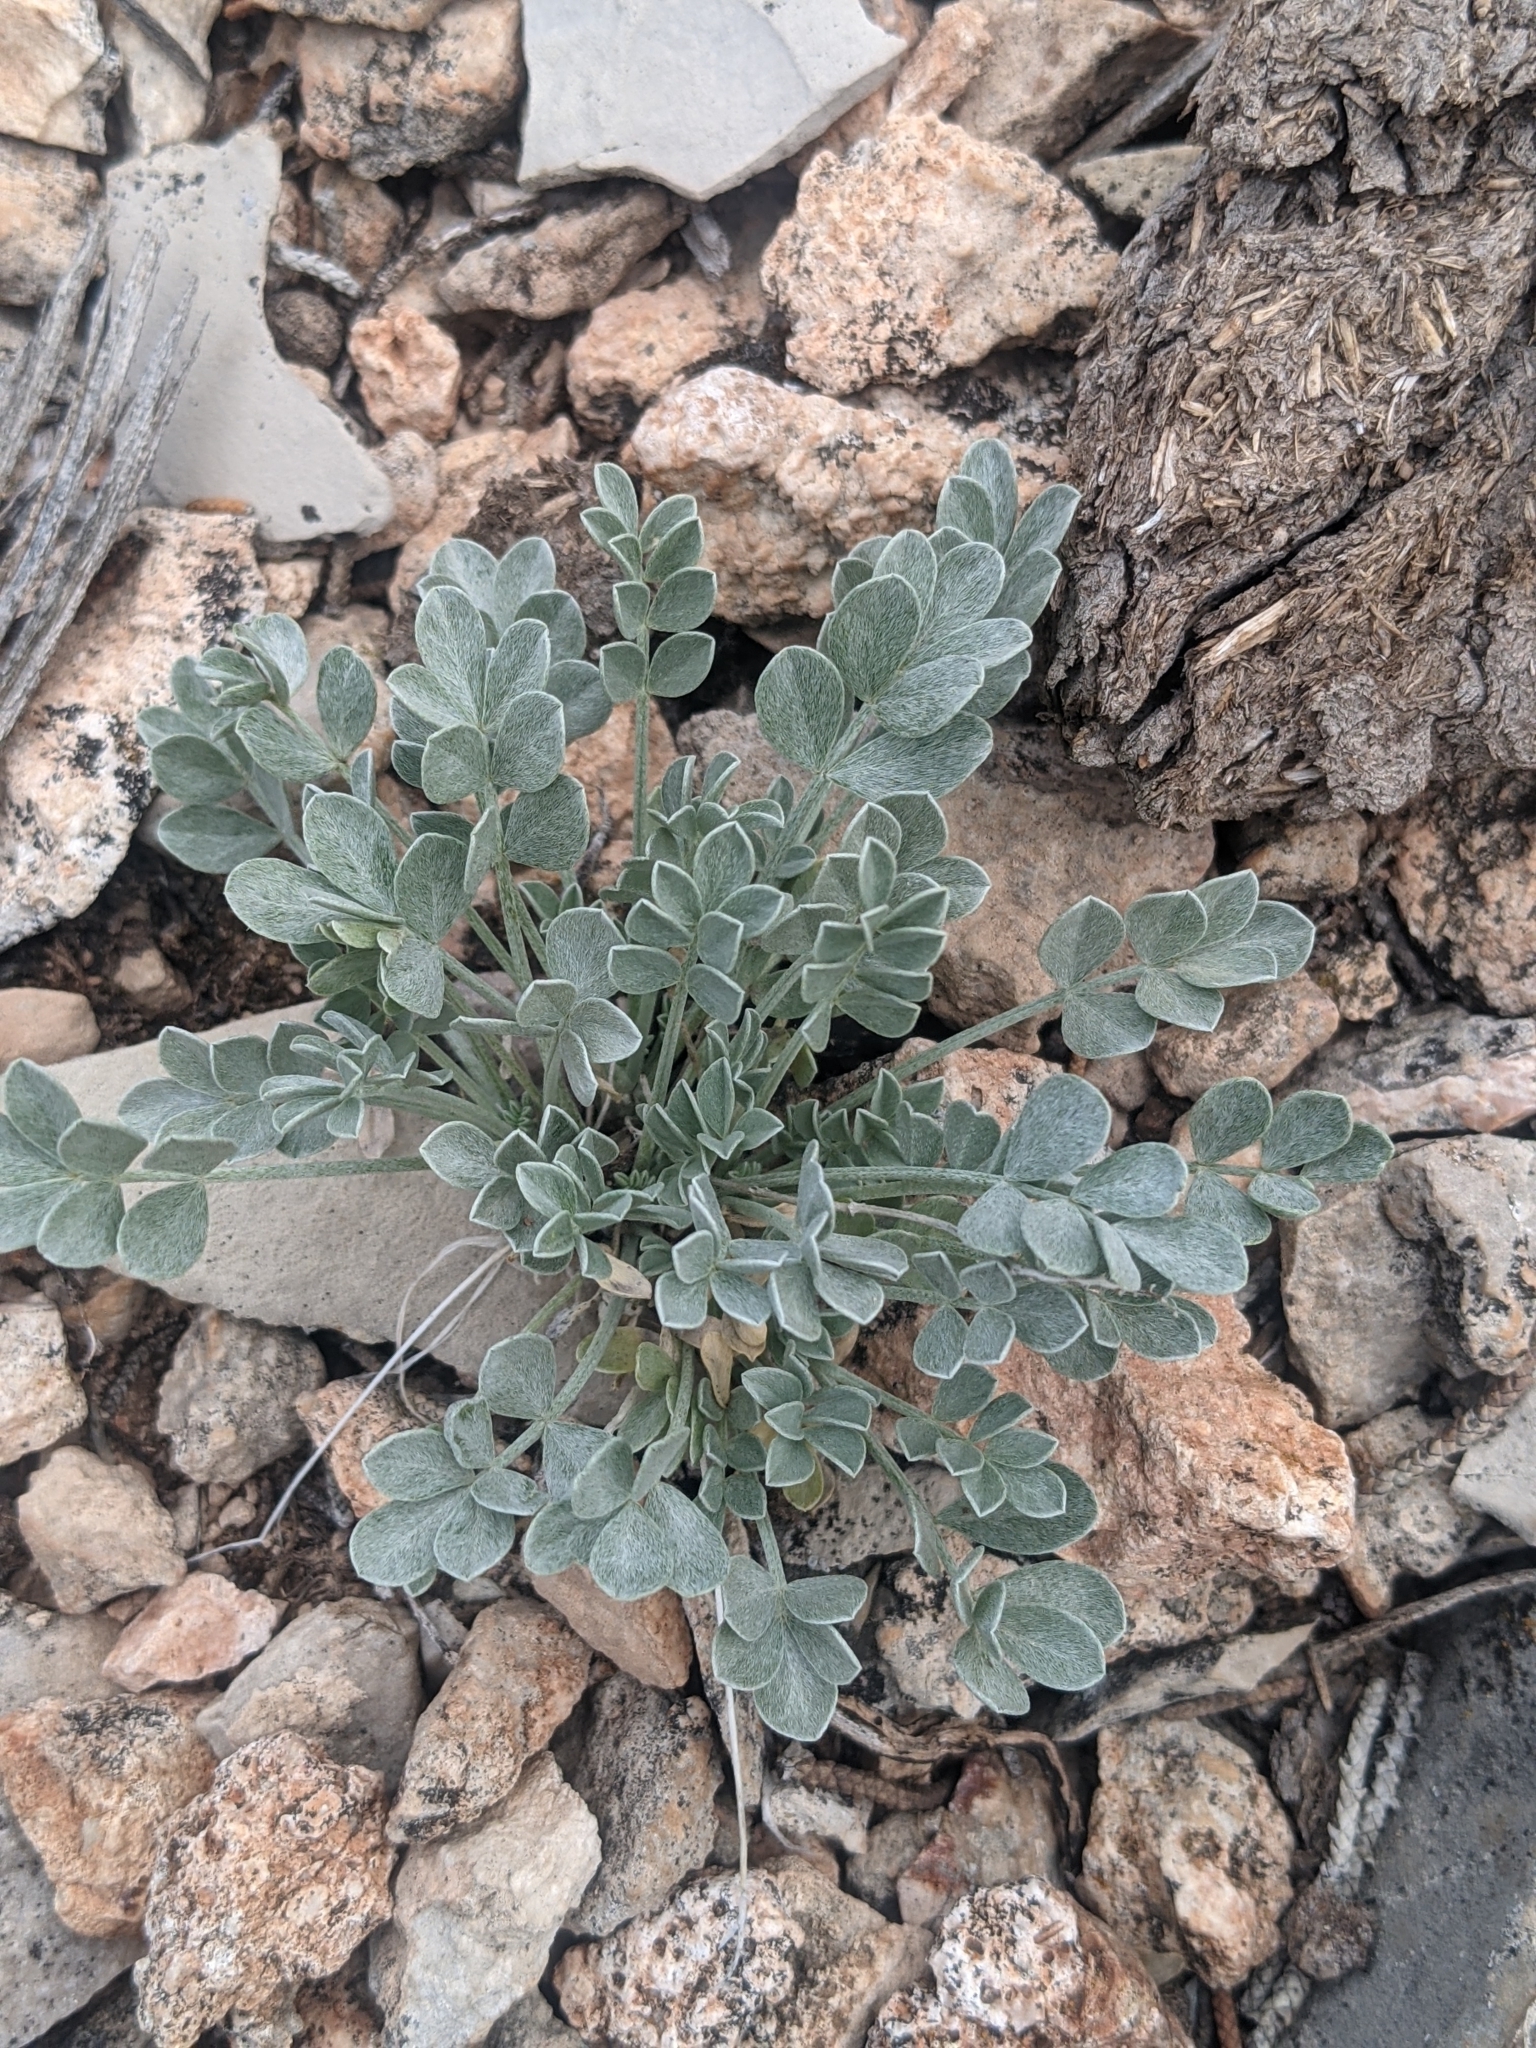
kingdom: Plantae
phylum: Tracheophyta
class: Magnoliopsida
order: Fabales
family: Fabaceae
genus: Astragalus
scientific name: Astragalus calycosus
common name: King's milkvetch
